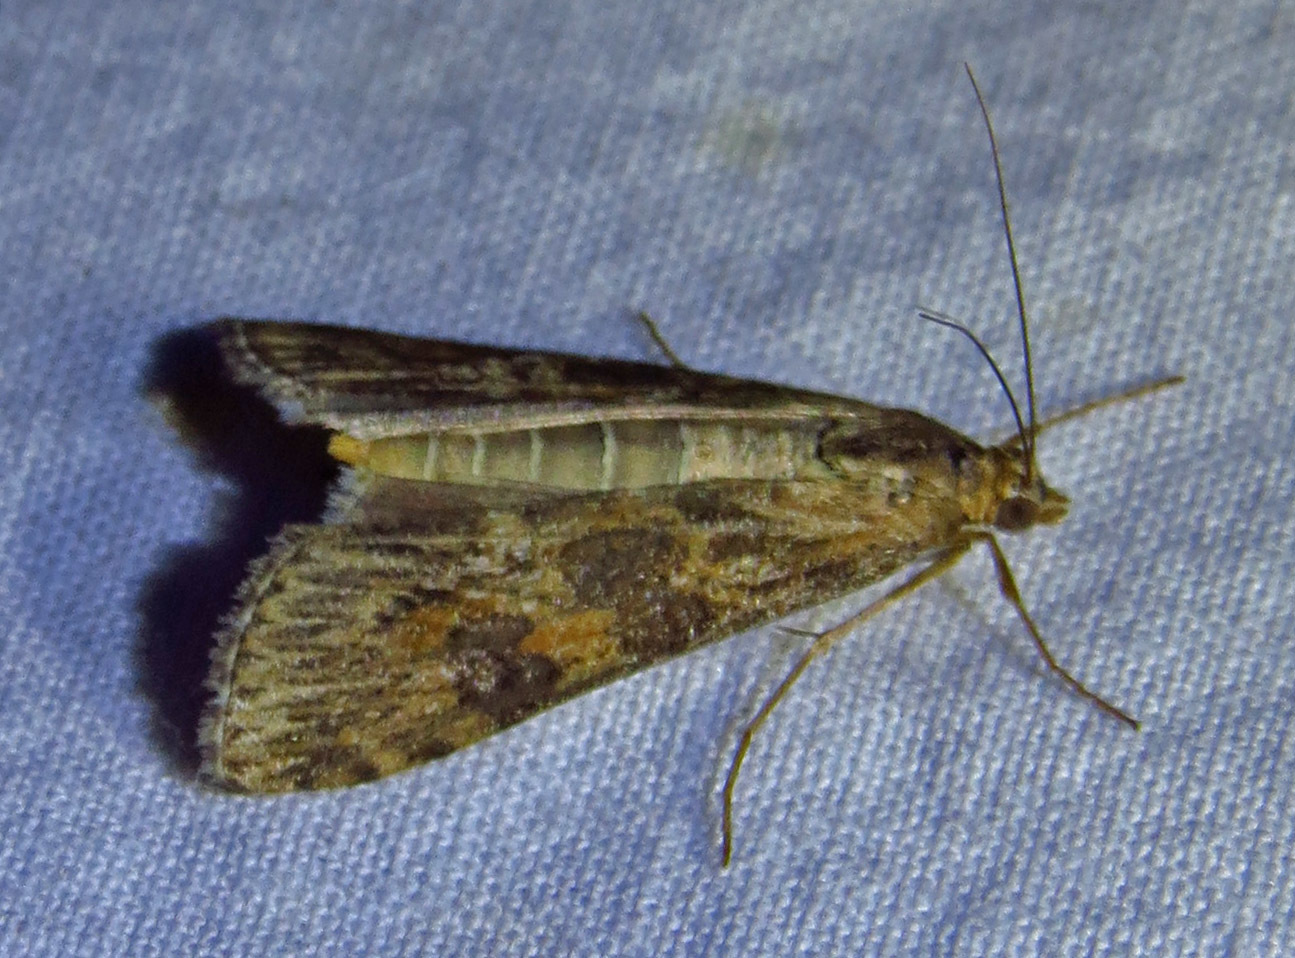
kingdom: Animalia
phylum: Arthropoda
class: Insecta
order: Lepidoptera
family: Crambidae
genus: Nomophila
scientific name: Nomophila nearctica
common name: American rush veneer
